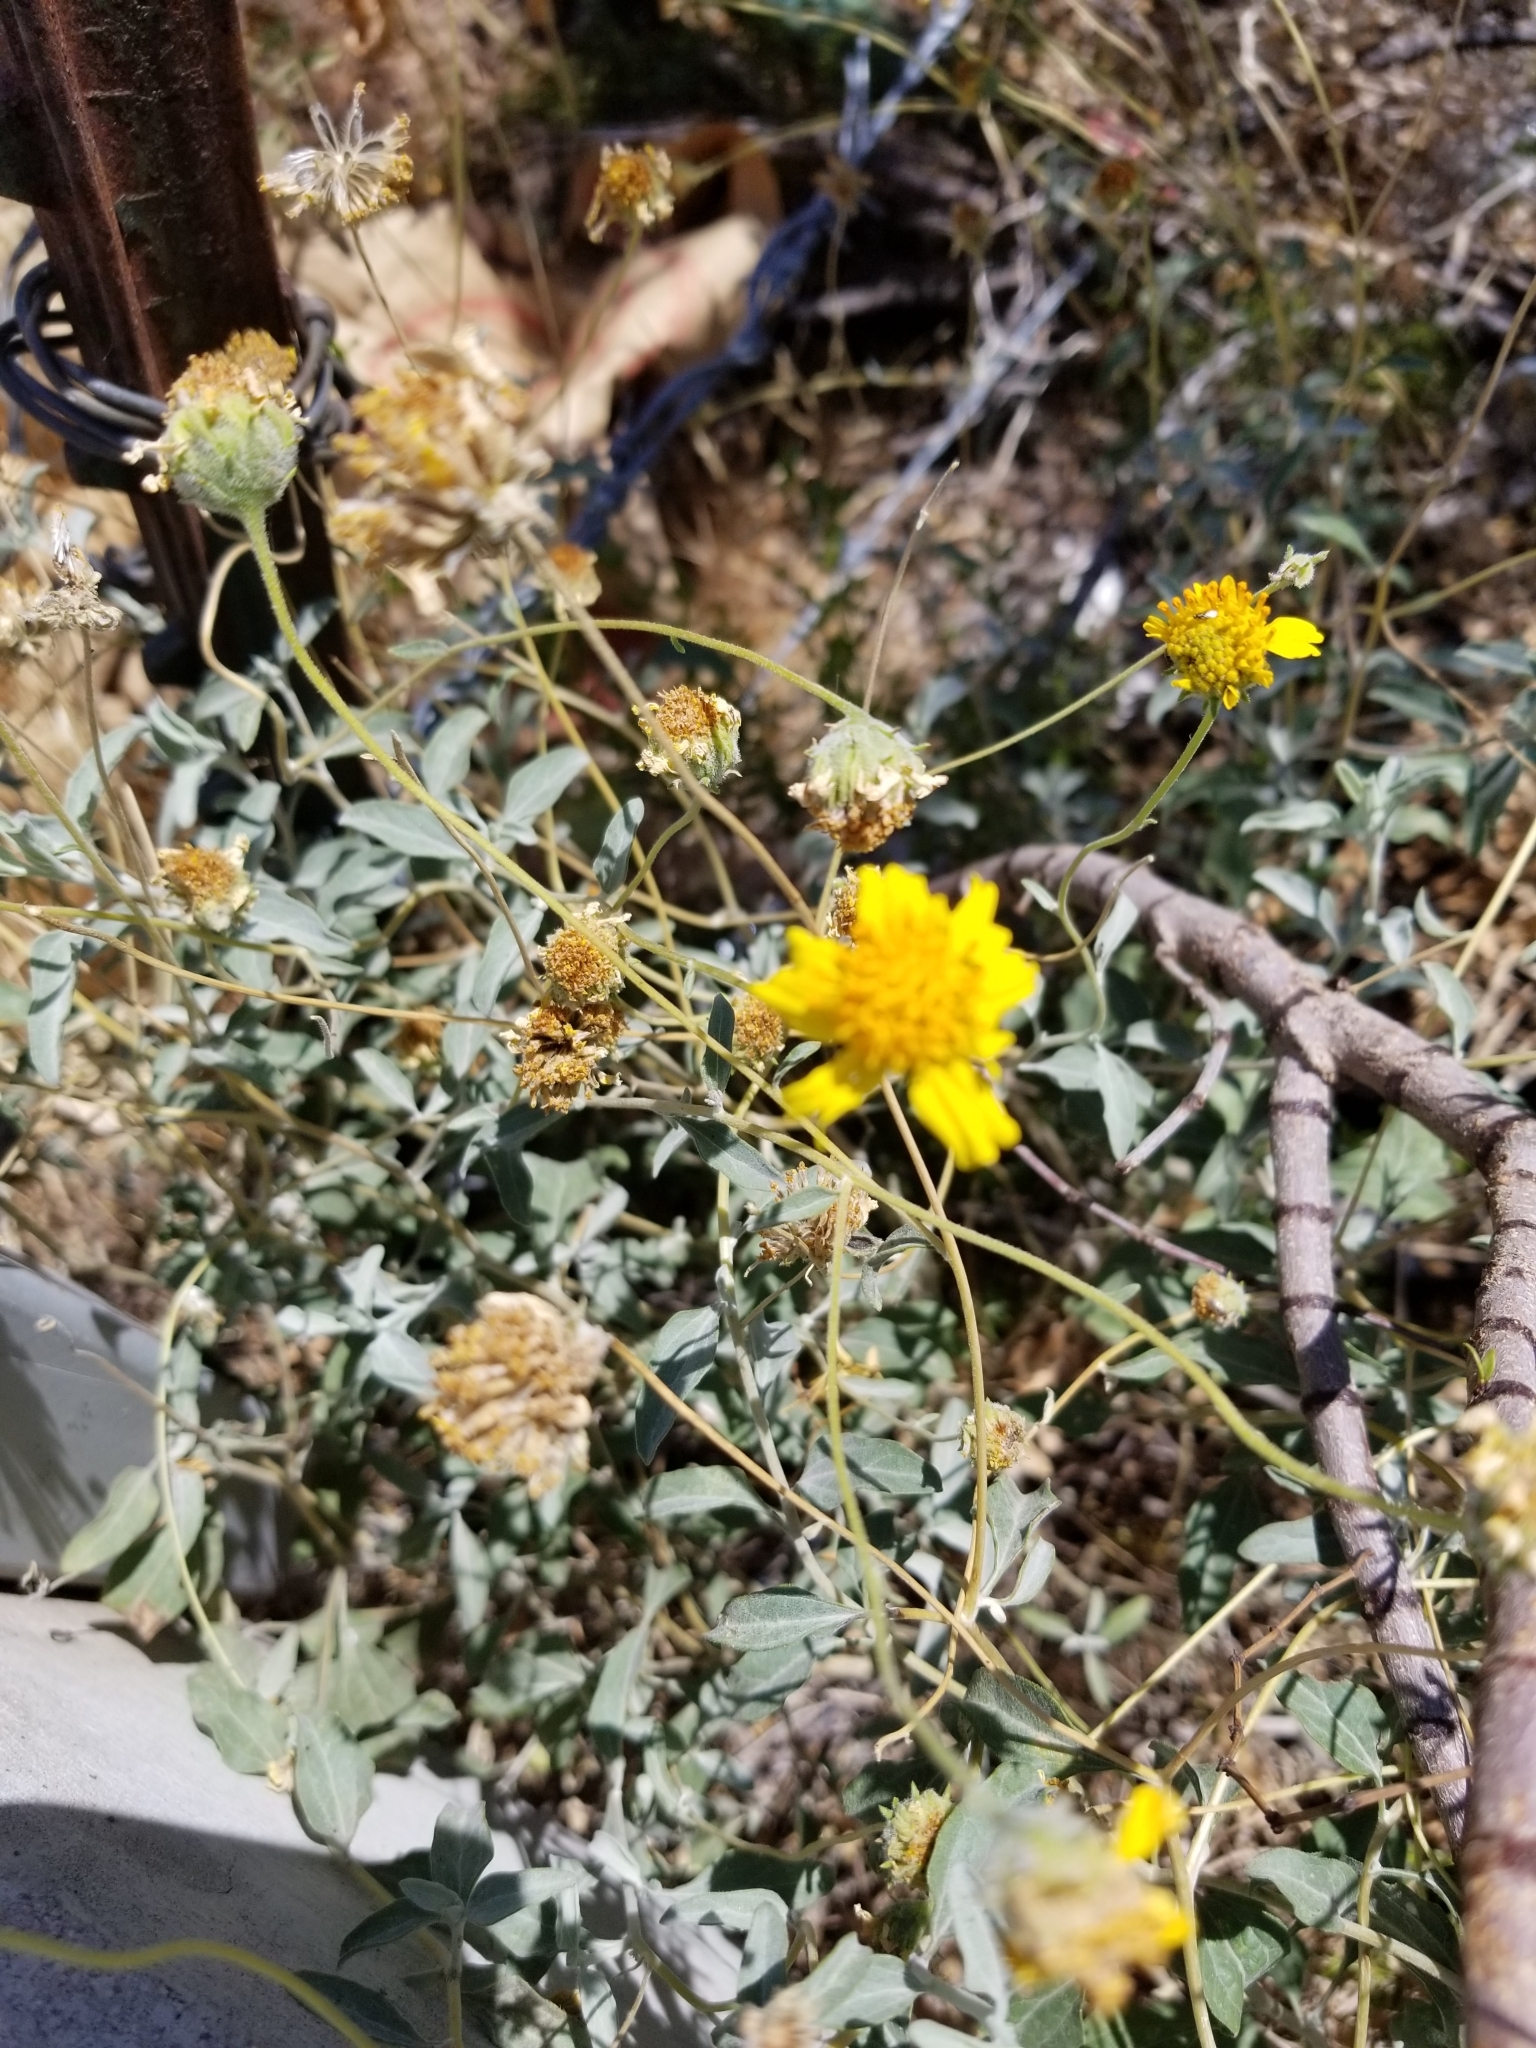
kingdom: Plantae
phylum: Tracheophyta
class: Magnoliopsida
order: Asterales
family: Asteraceae
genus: Encelia
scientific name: Encelia farinosa
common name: Brittlebush
